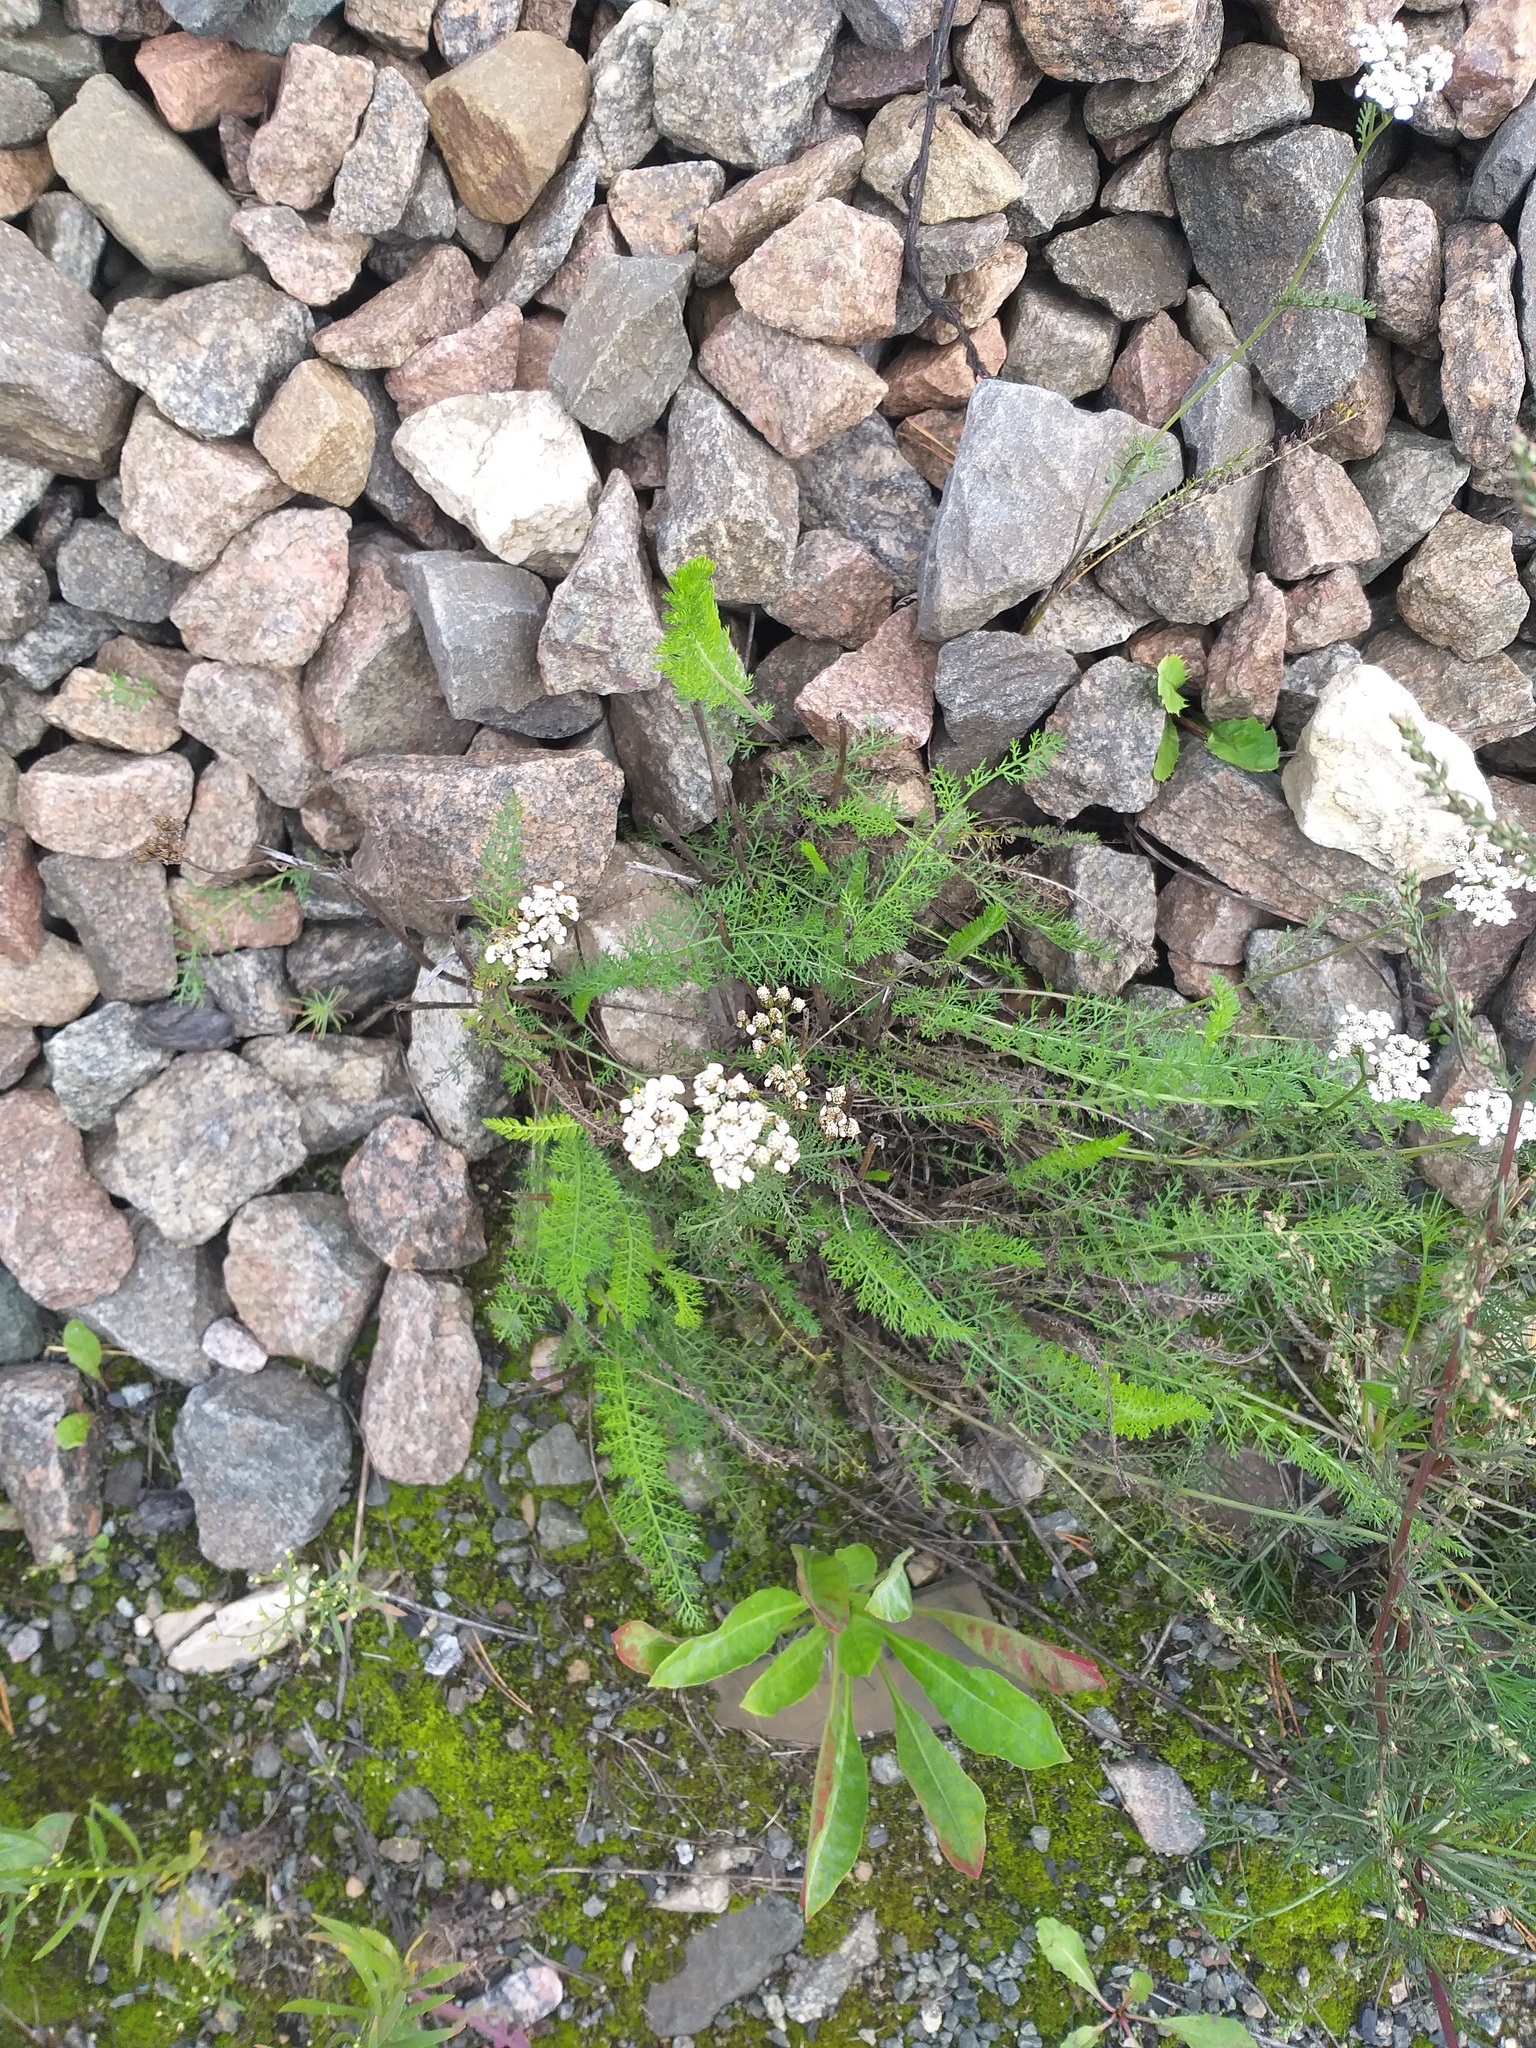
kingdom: Plantae
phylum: Tracheophyta
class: Magnoliopsida
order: Asterales
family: Asteraceae
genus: Achillea
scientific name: Achillea millefolium
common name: Yarrow
